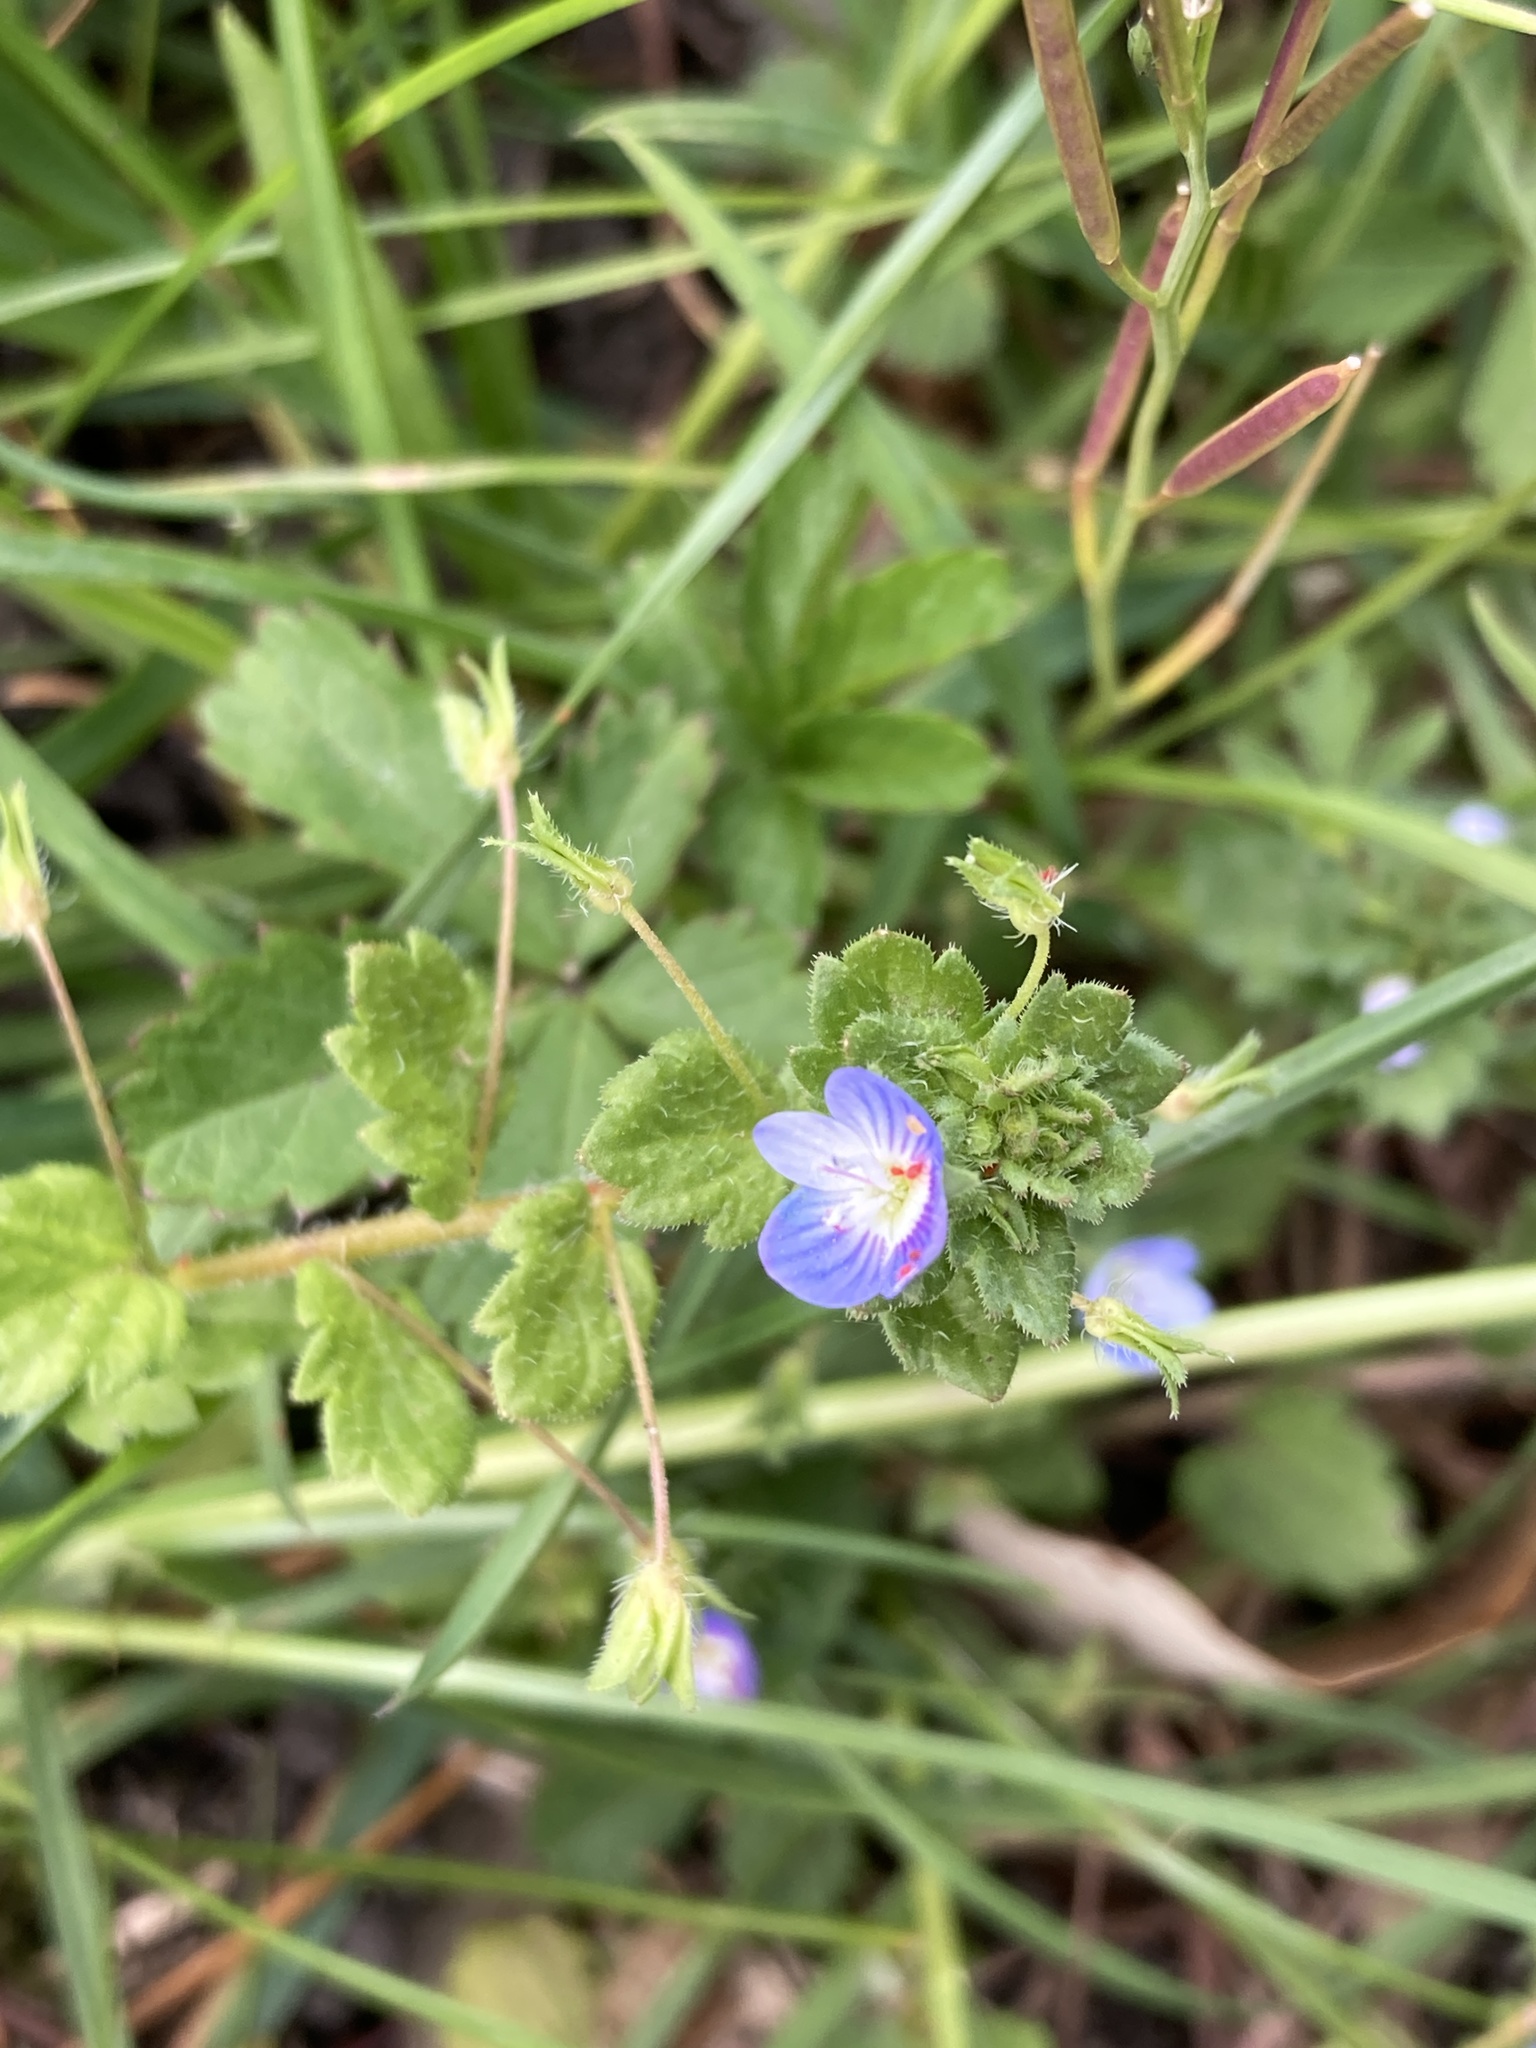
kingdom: Plantae
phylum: Tracheophyta
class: Magnoliopsida
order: Lamiales
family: Plantaginaceae
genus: Veronica
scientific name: Veronica persica
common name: Common field-speedwell
